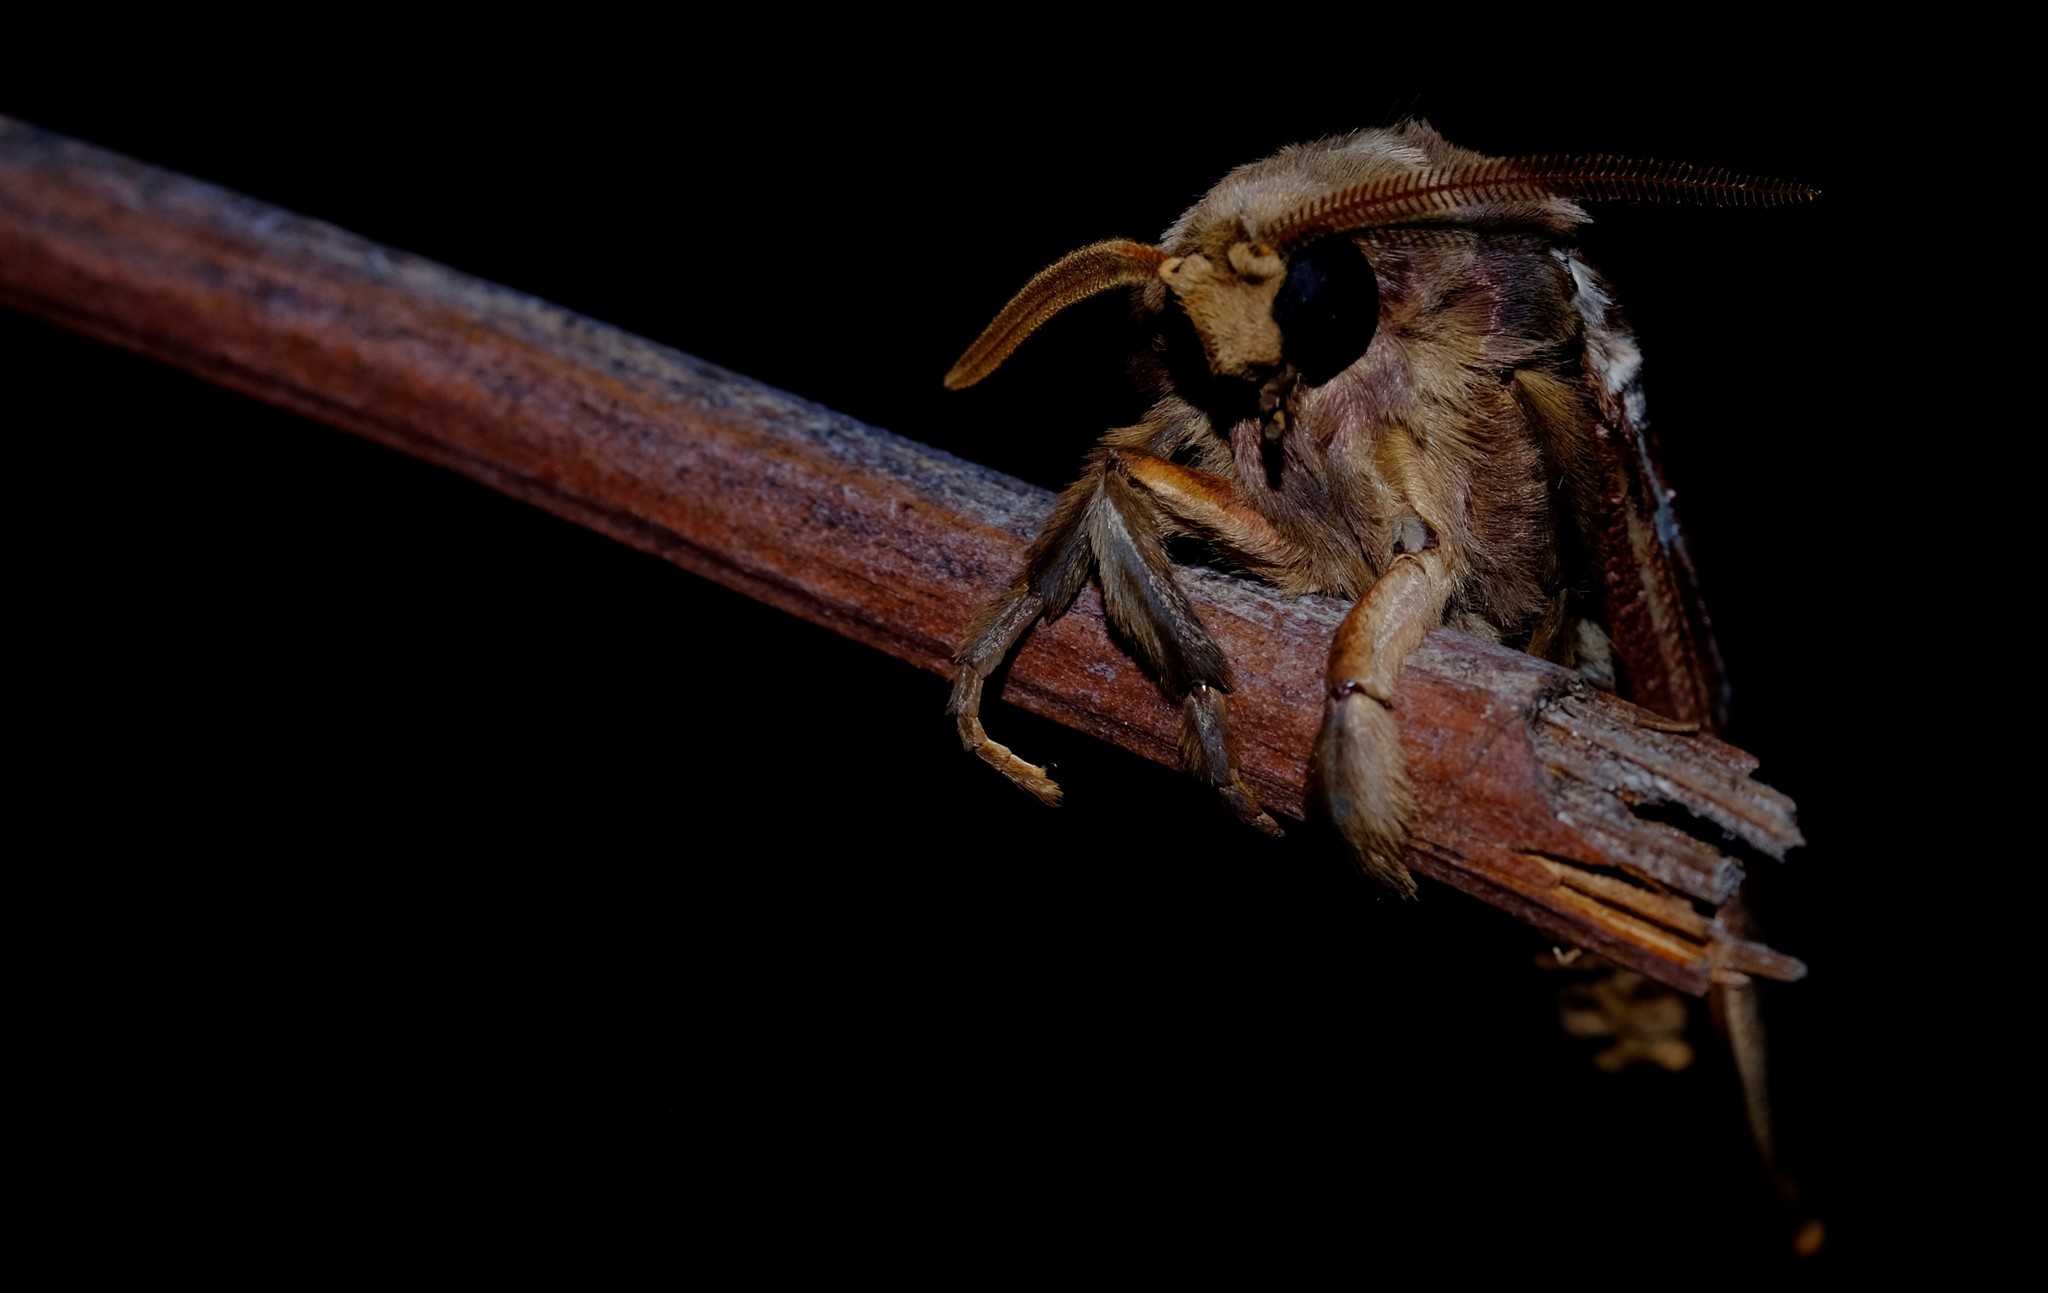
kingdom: Animalia
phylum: Arthropoda
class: Insecta
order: Lepidoptera
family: Hepialidae
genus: Oxycanus
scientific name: Oxycanus australis
